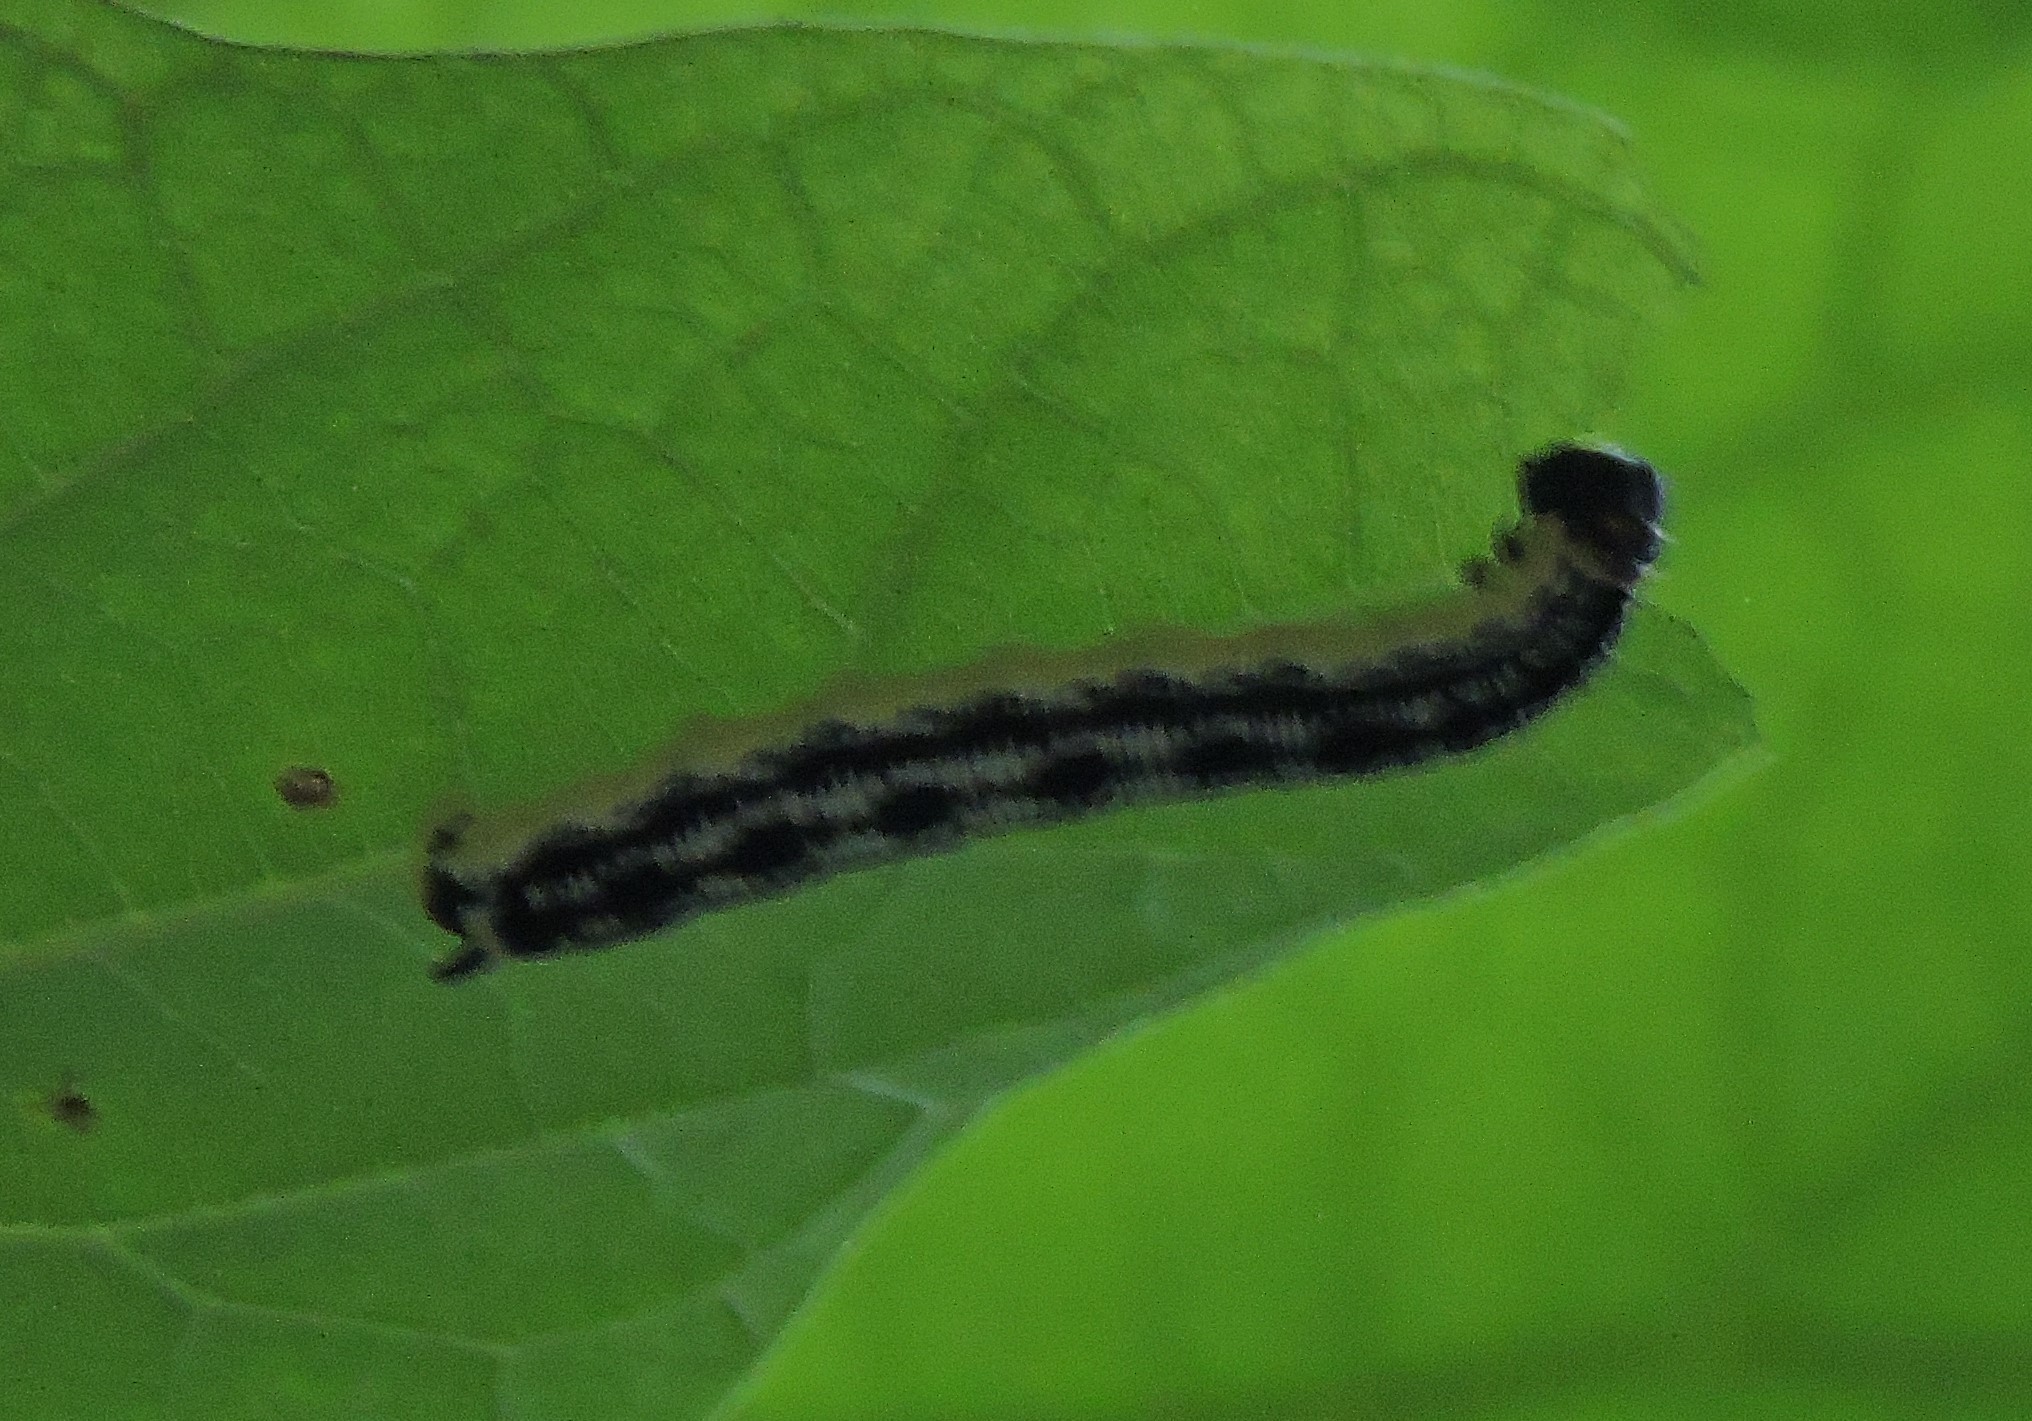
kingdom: Animalia
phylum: Arthropoda
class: Insecta
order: Lepidoptera
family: Sphingidae
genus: Ceratomia
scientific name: Ceratomia catalpae
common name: Catalpa hornworm
